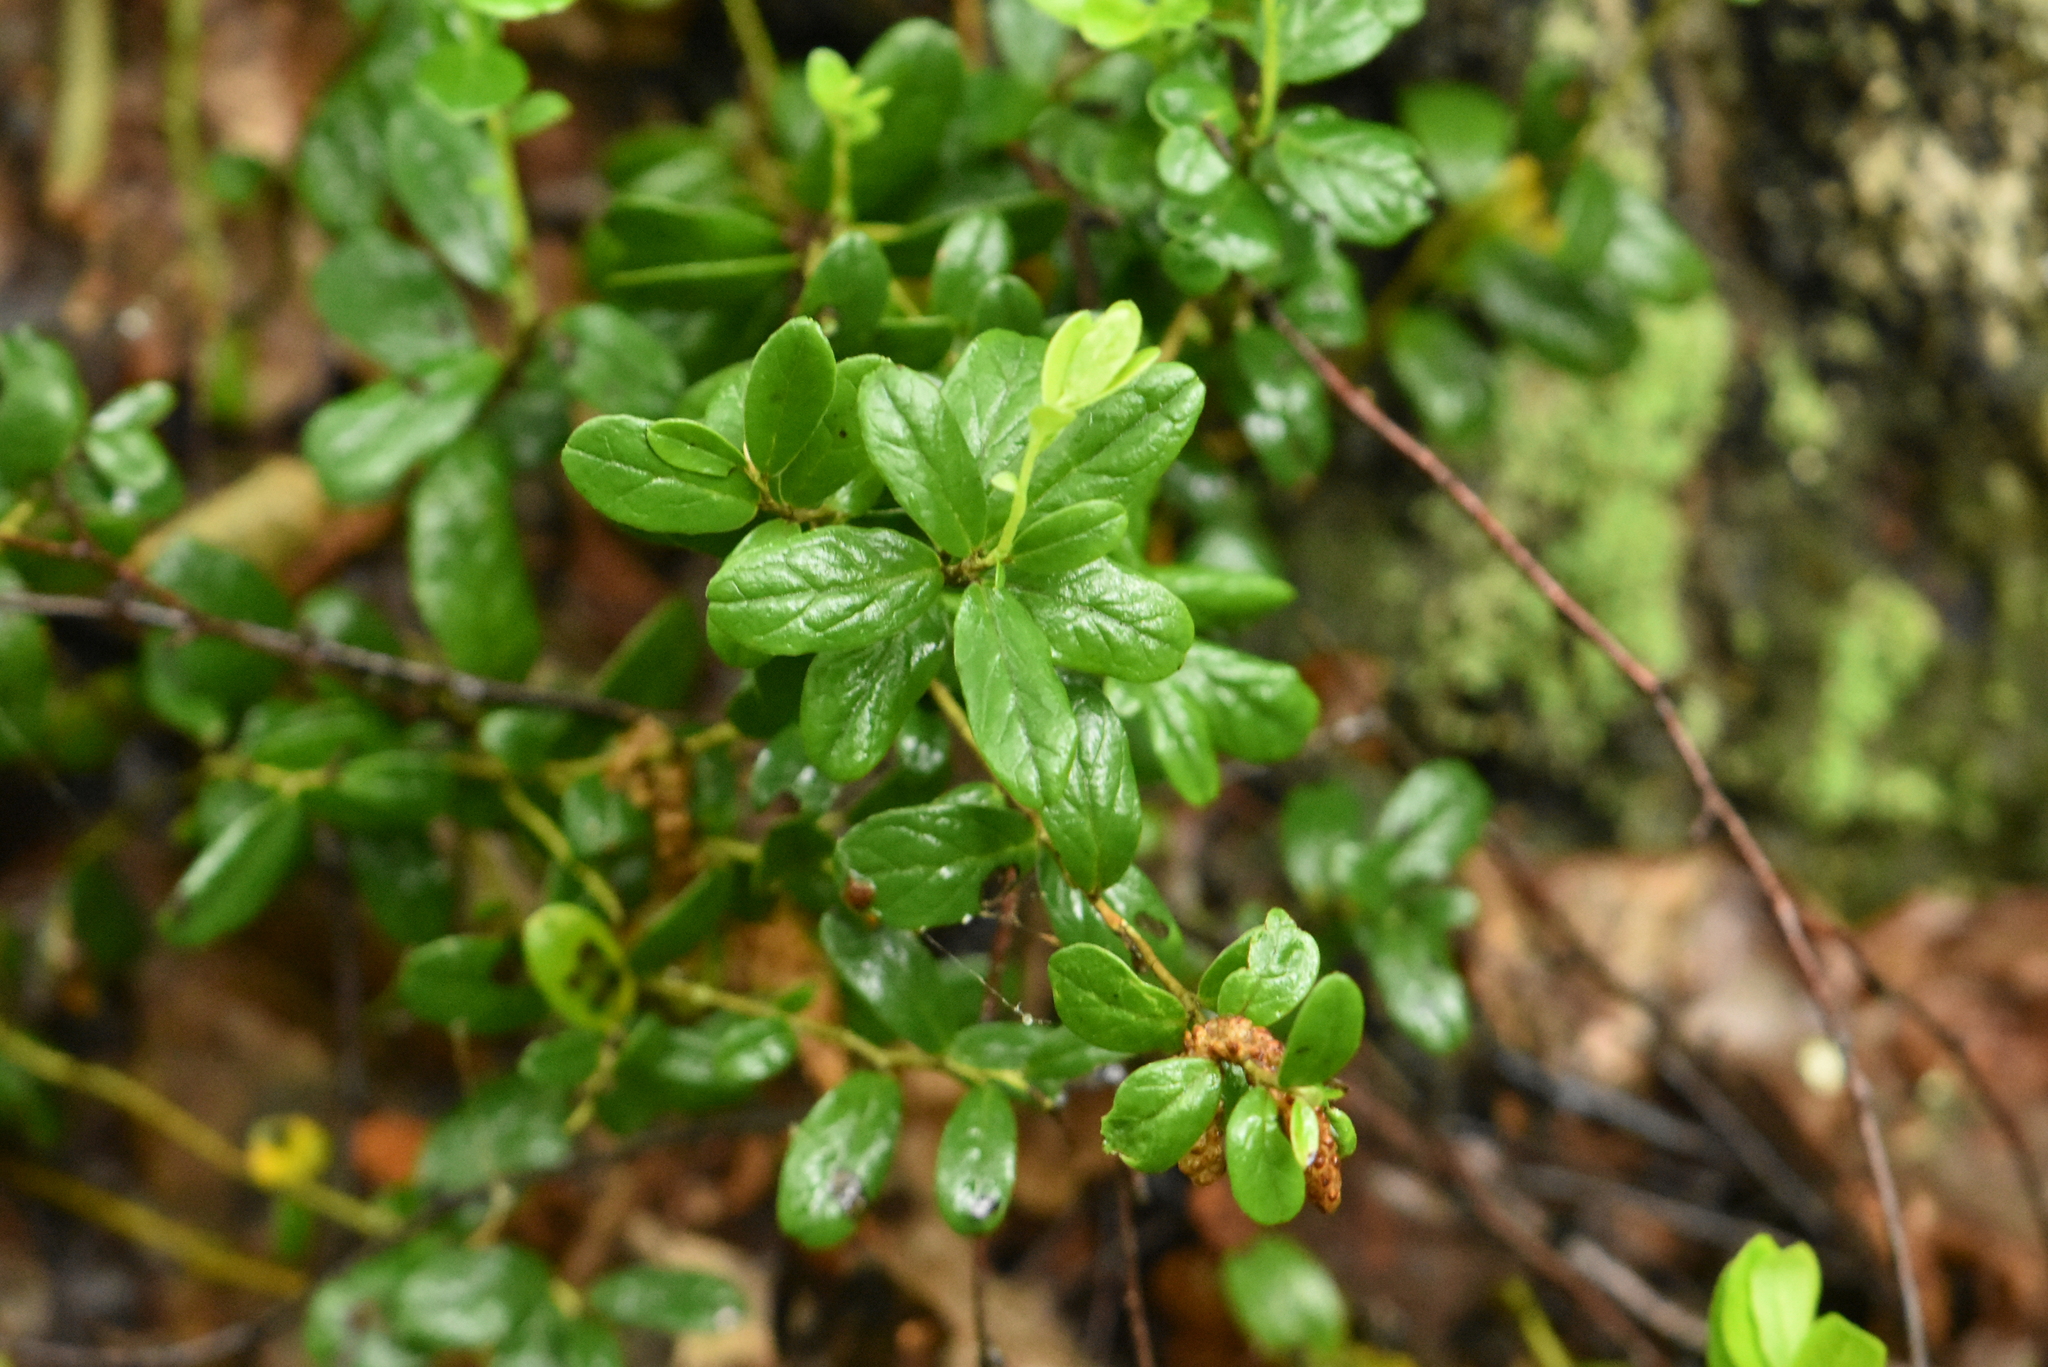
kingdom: Plantae
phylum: Tracheophyta
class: Magnoliopsida
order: Ericales
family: Ericaceae
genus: Vaccinium
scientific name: Vaccinium vitis-idaea
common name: Cowberry
